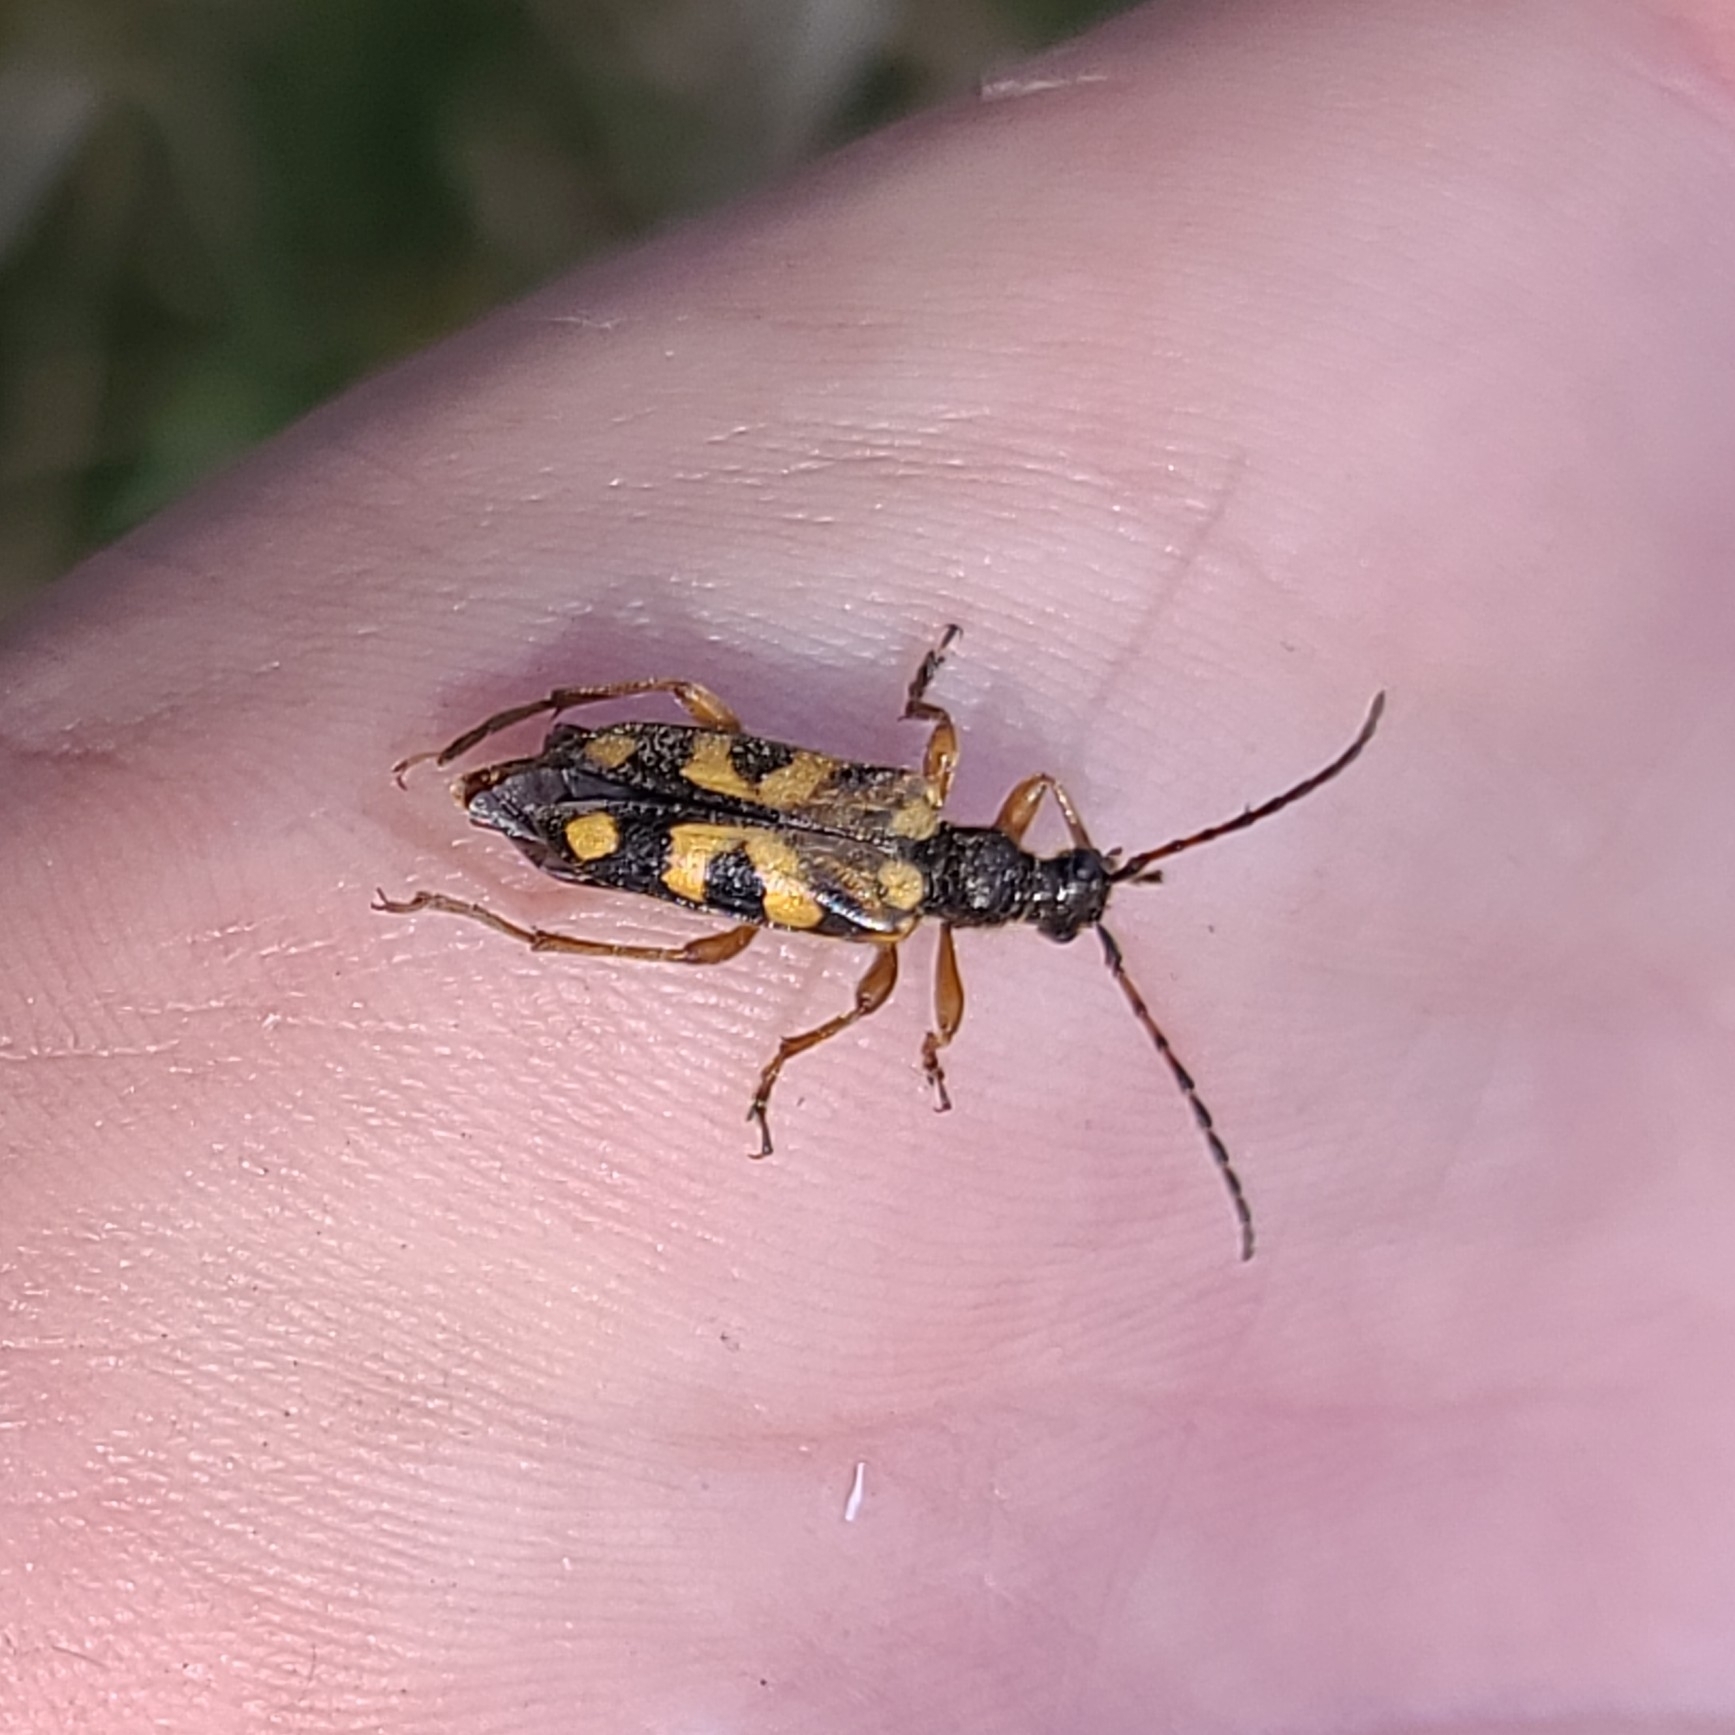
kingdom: Animalia
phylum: Arthropoda
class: Insecta
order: Coleoptera
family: Cerambycidae
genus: Xestoleptura
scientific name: Xestoleptura crassipes
